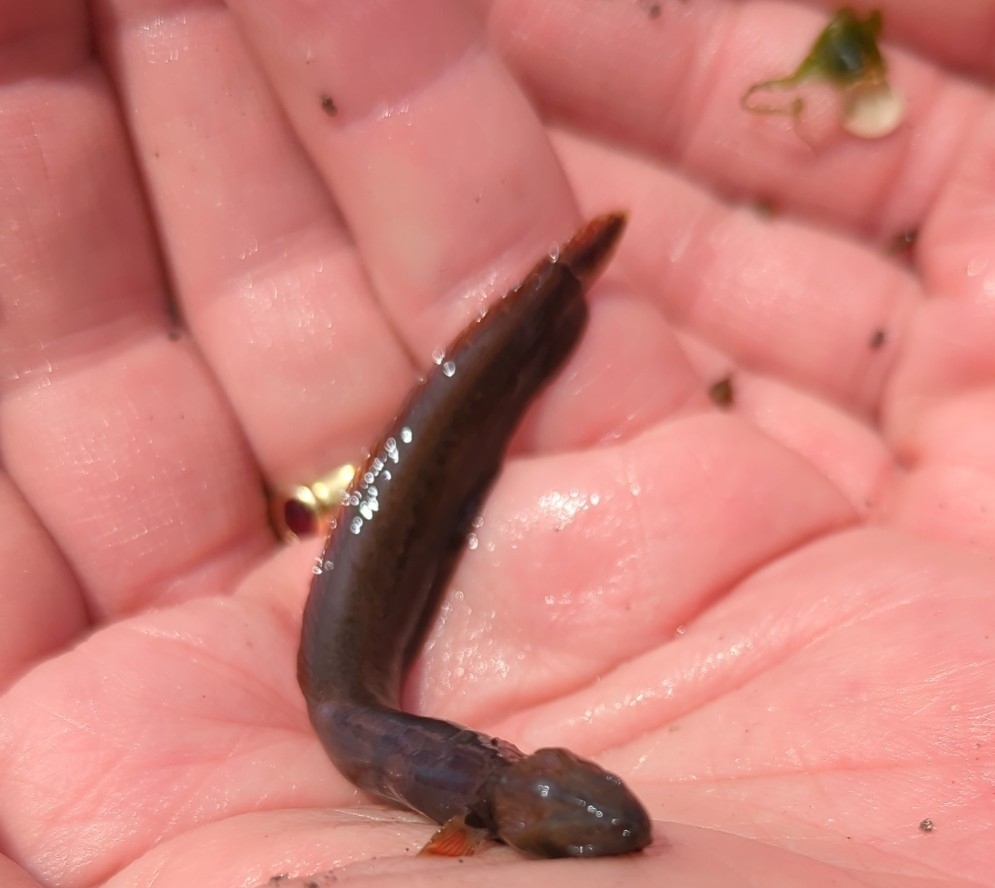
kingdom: Animalia
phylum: Chordata
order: Perciformes
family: Stichaeidae
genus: Anoplarchus
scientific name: Anoplarchus purpurescens
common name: High cockscomb
